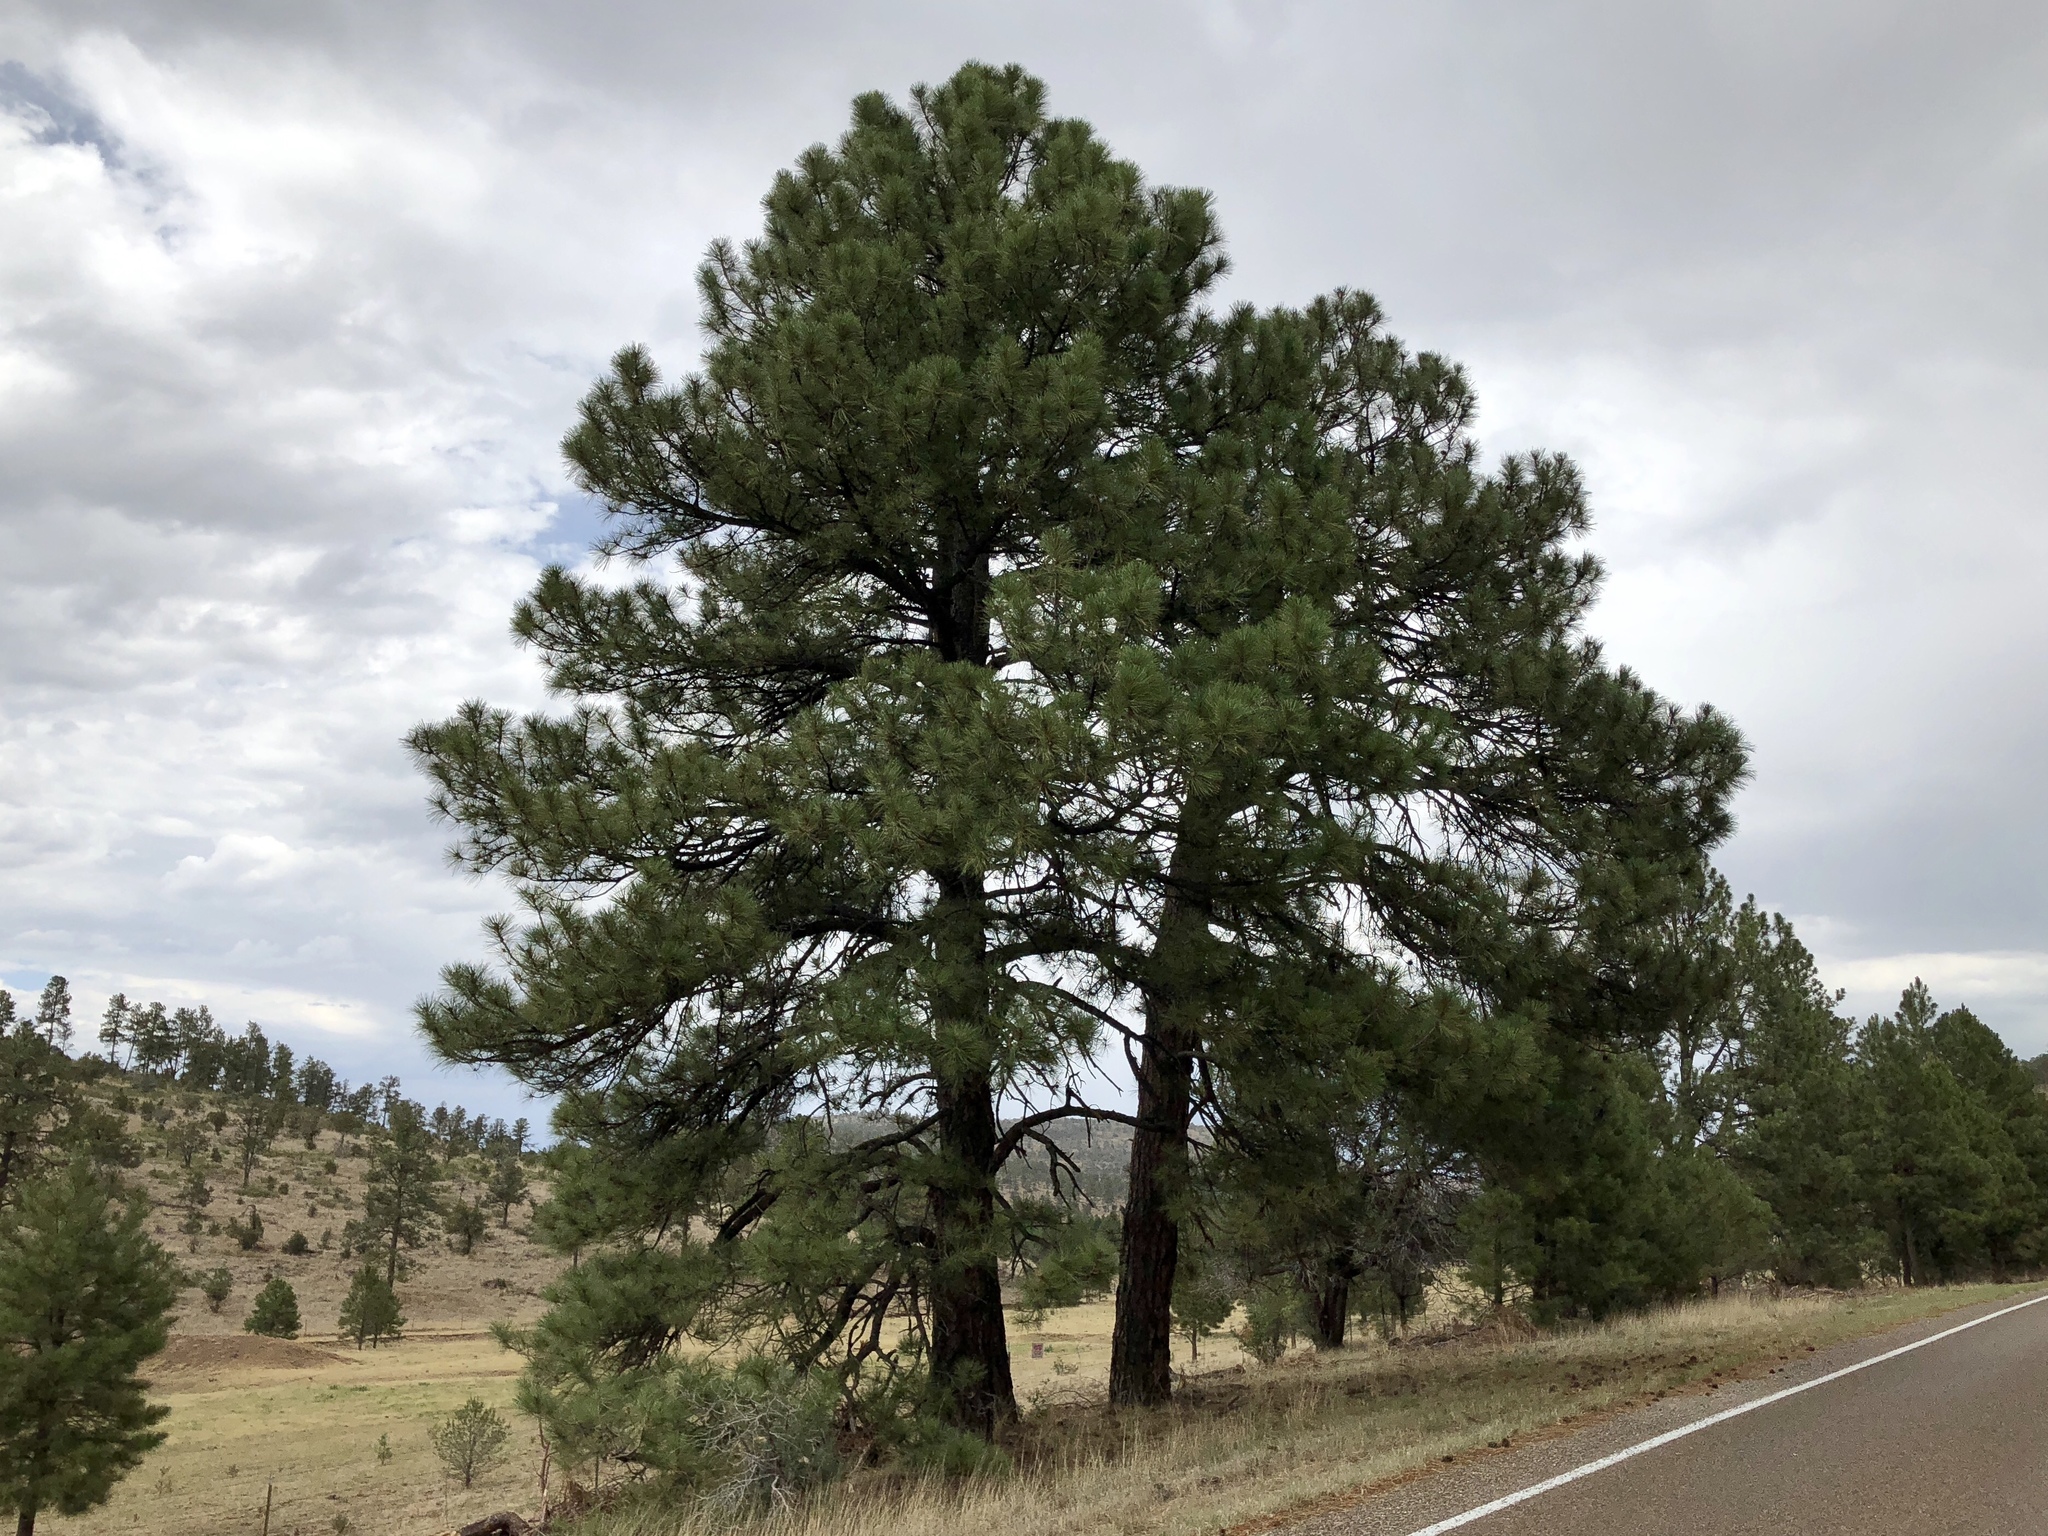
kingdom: Plantae
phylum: Tracheophyta
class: Pinopsida
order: Pinales
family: Pinaceae
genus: Pinus
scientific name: Pinus ponderosa
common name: Western yellow-pine
